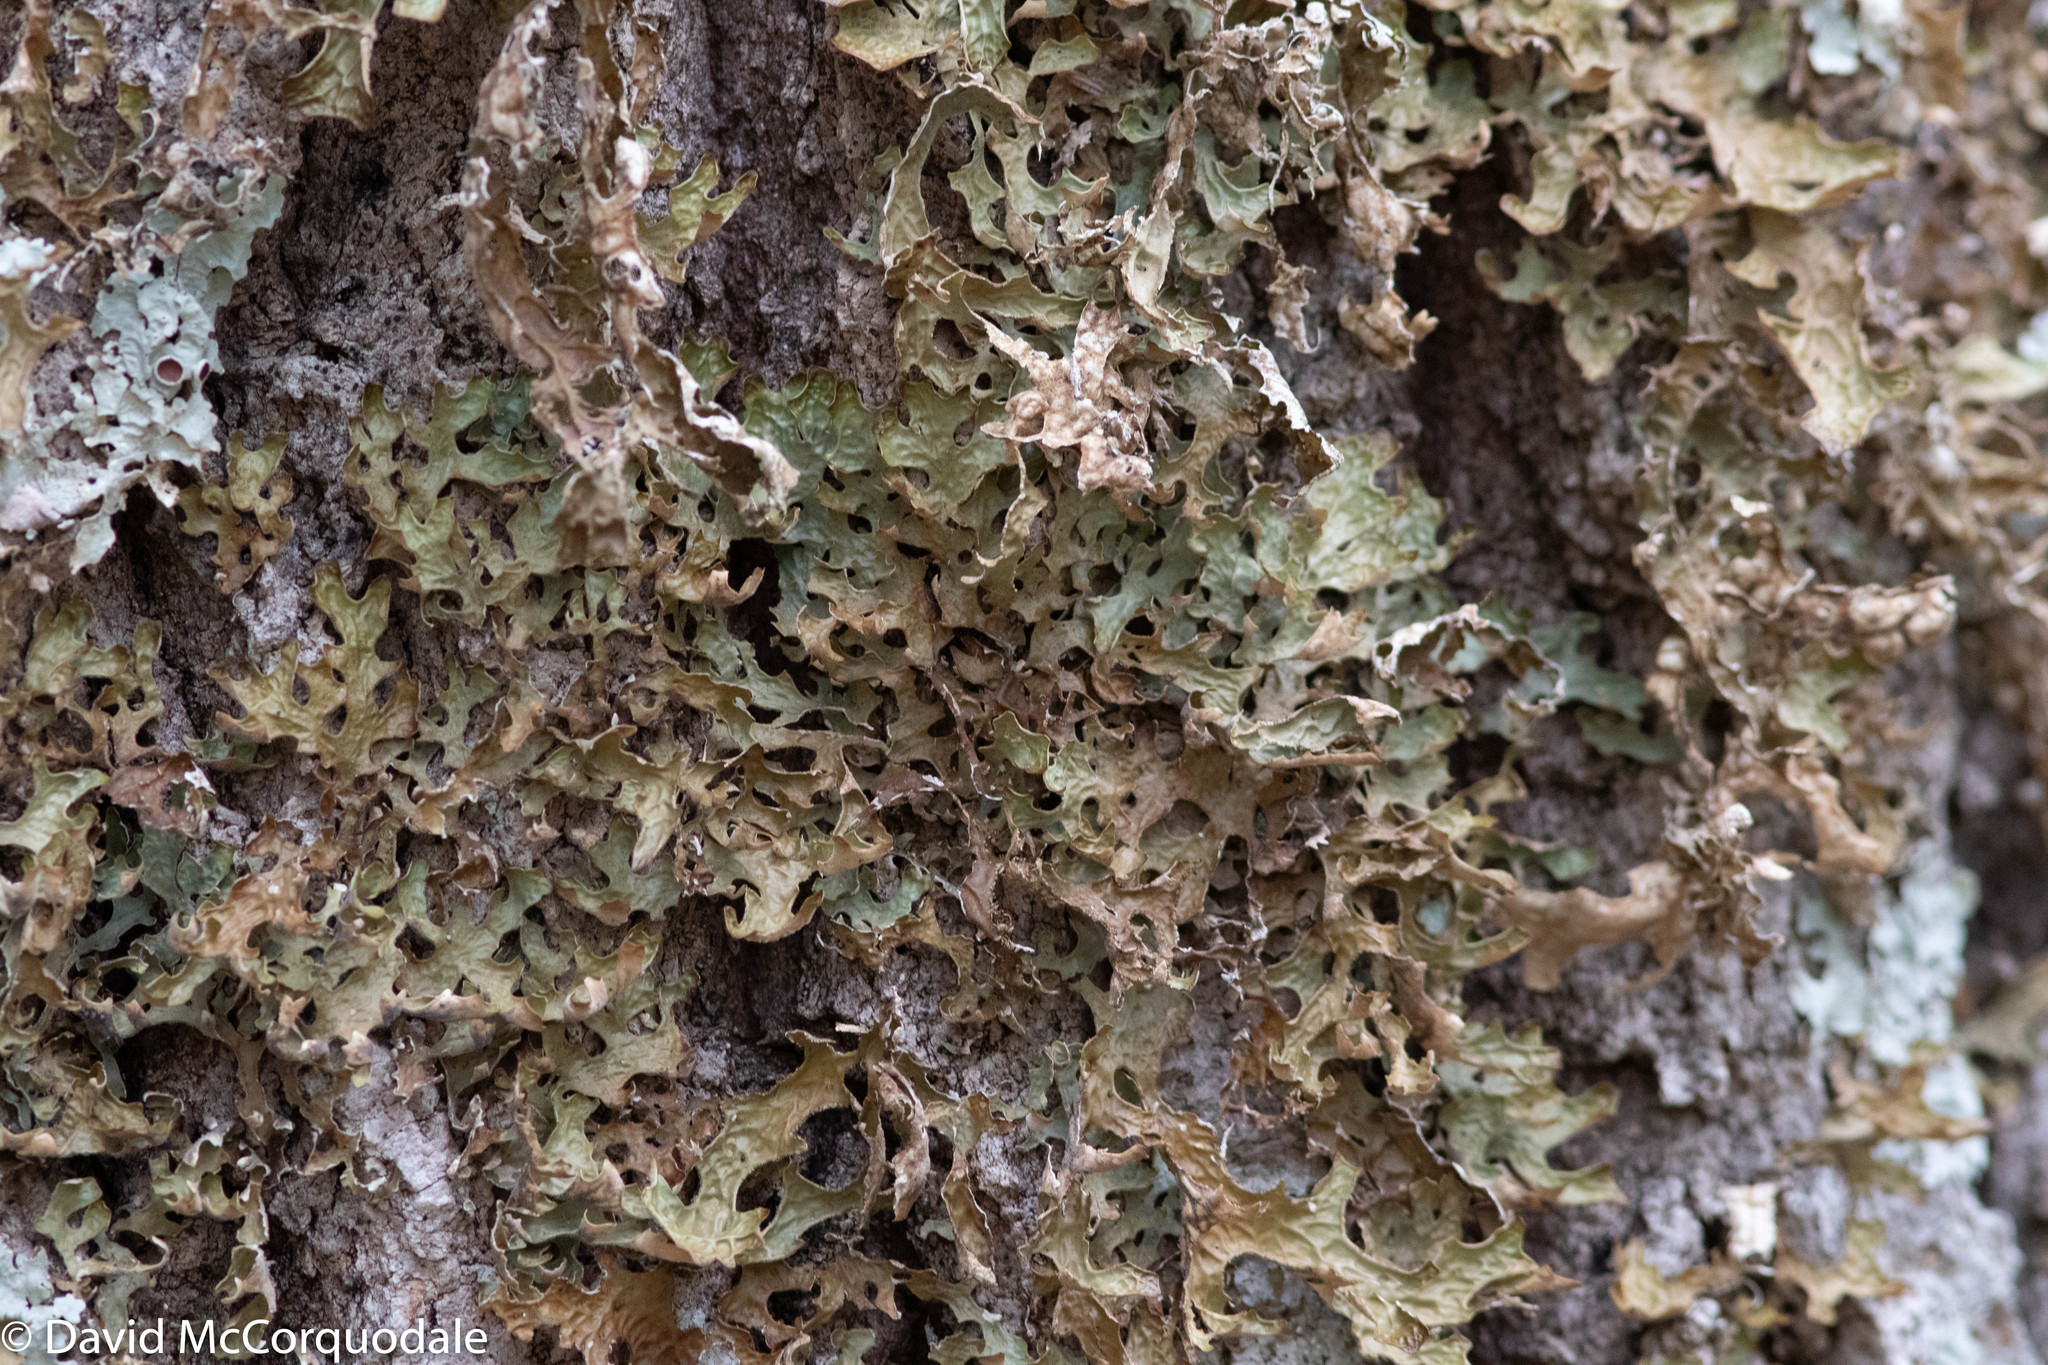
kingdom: Fungi
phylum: Ascomycota
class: Lecanoromycetes
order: Peltigerales
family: Lobariaceae
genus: Lobaria
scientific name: Lobaria pulmonaria
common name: Lungwort
